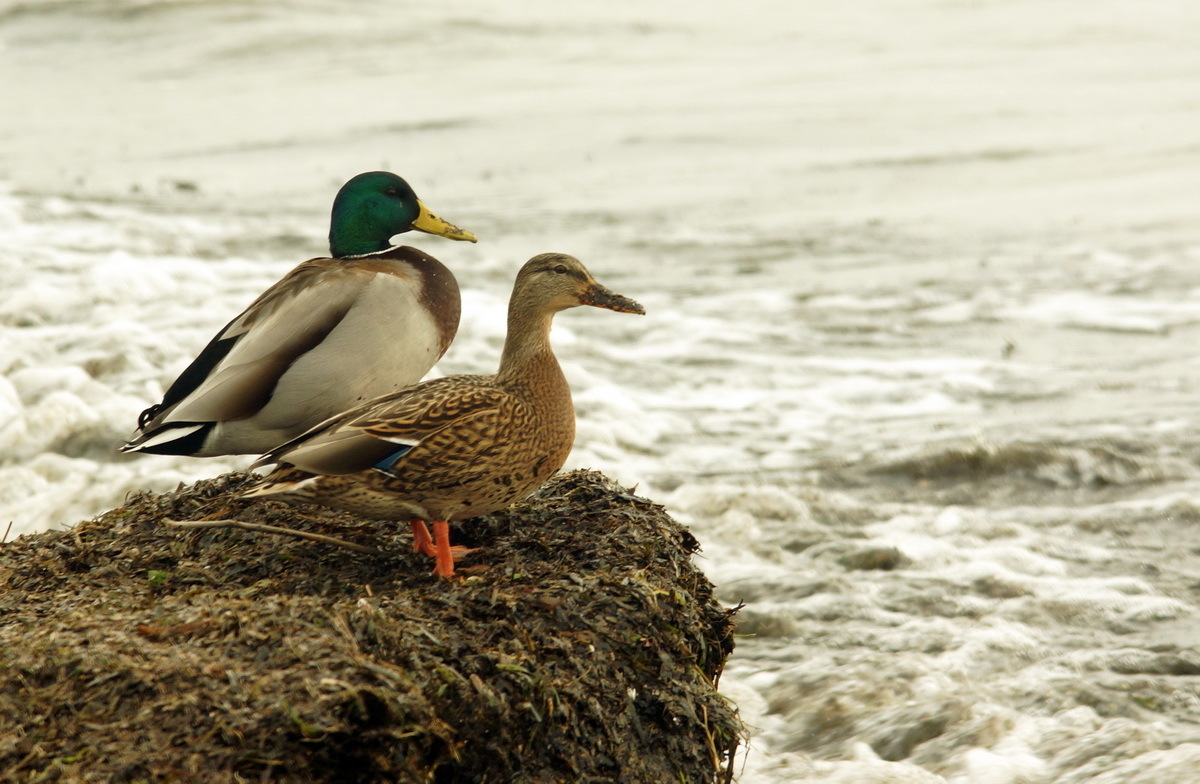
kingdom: Animalia
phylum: Chordata
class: Aves
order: Anseriformes
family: Anatidae
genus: Anas
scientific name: Anas platyrhynchos
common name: Mallard
